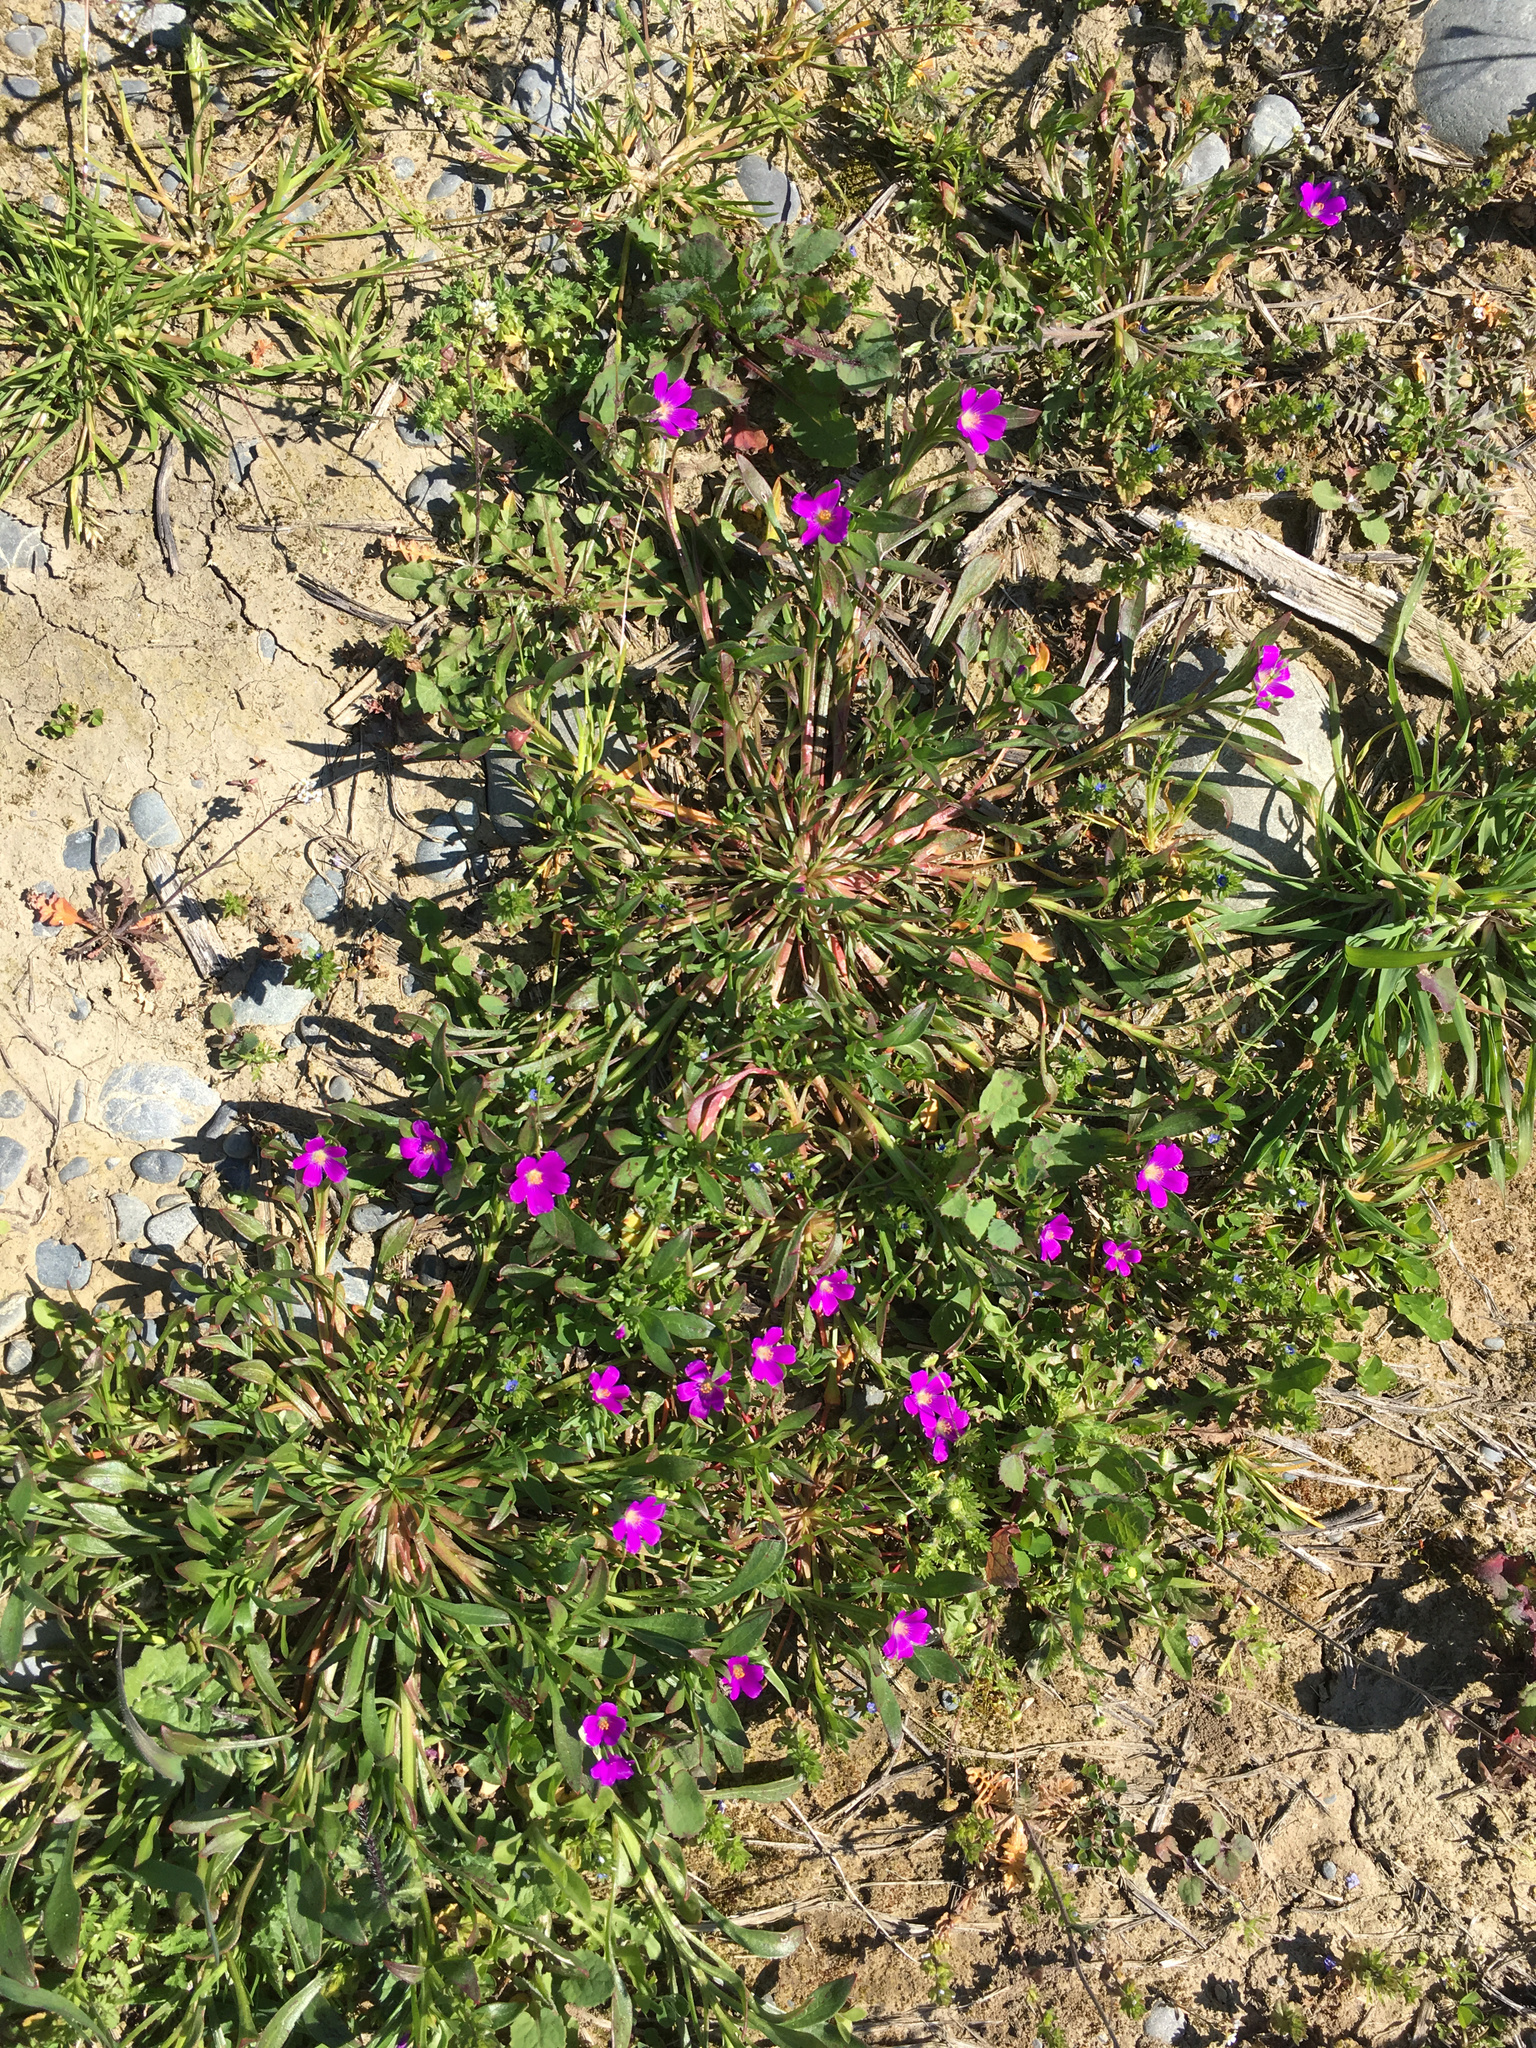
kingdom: Plantae
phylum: Tracheophyta
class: Magnoliopsida
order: Caryophyllales
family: Montiaceae
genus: Calandrinia
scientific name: Calandrinia menziesii
